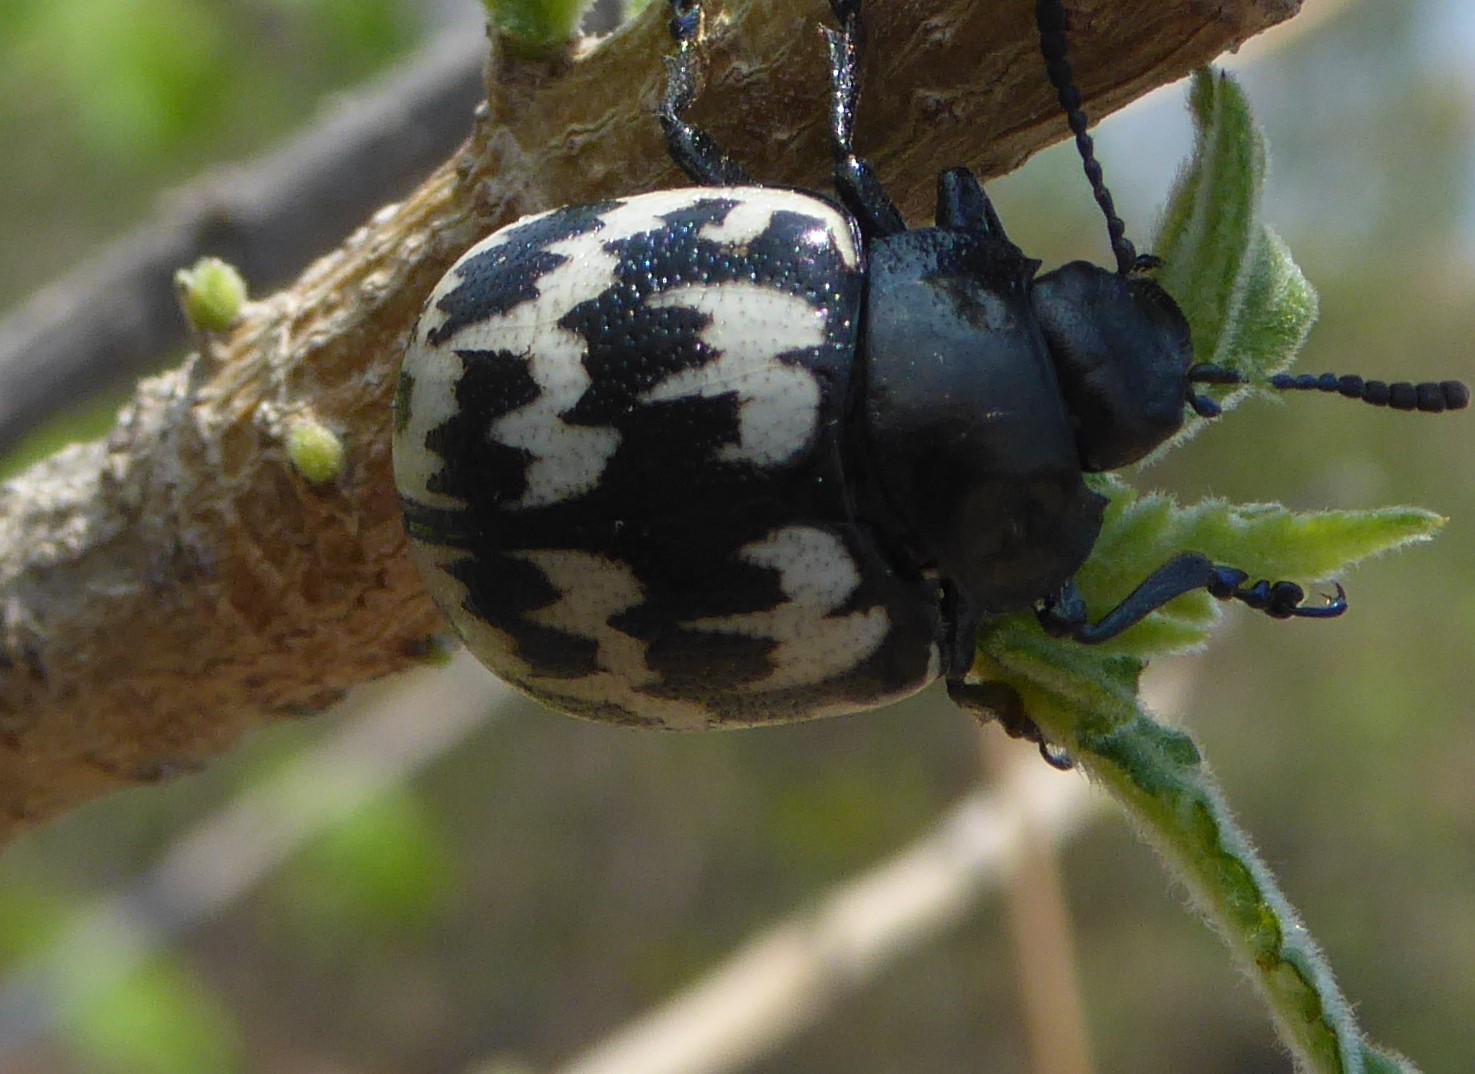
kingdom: Animalia
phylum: Arthropoda
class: Insecta
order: Coleoptera
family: Chrysomelidae
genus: Leptinotarsa
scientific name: Leptinotarsa
